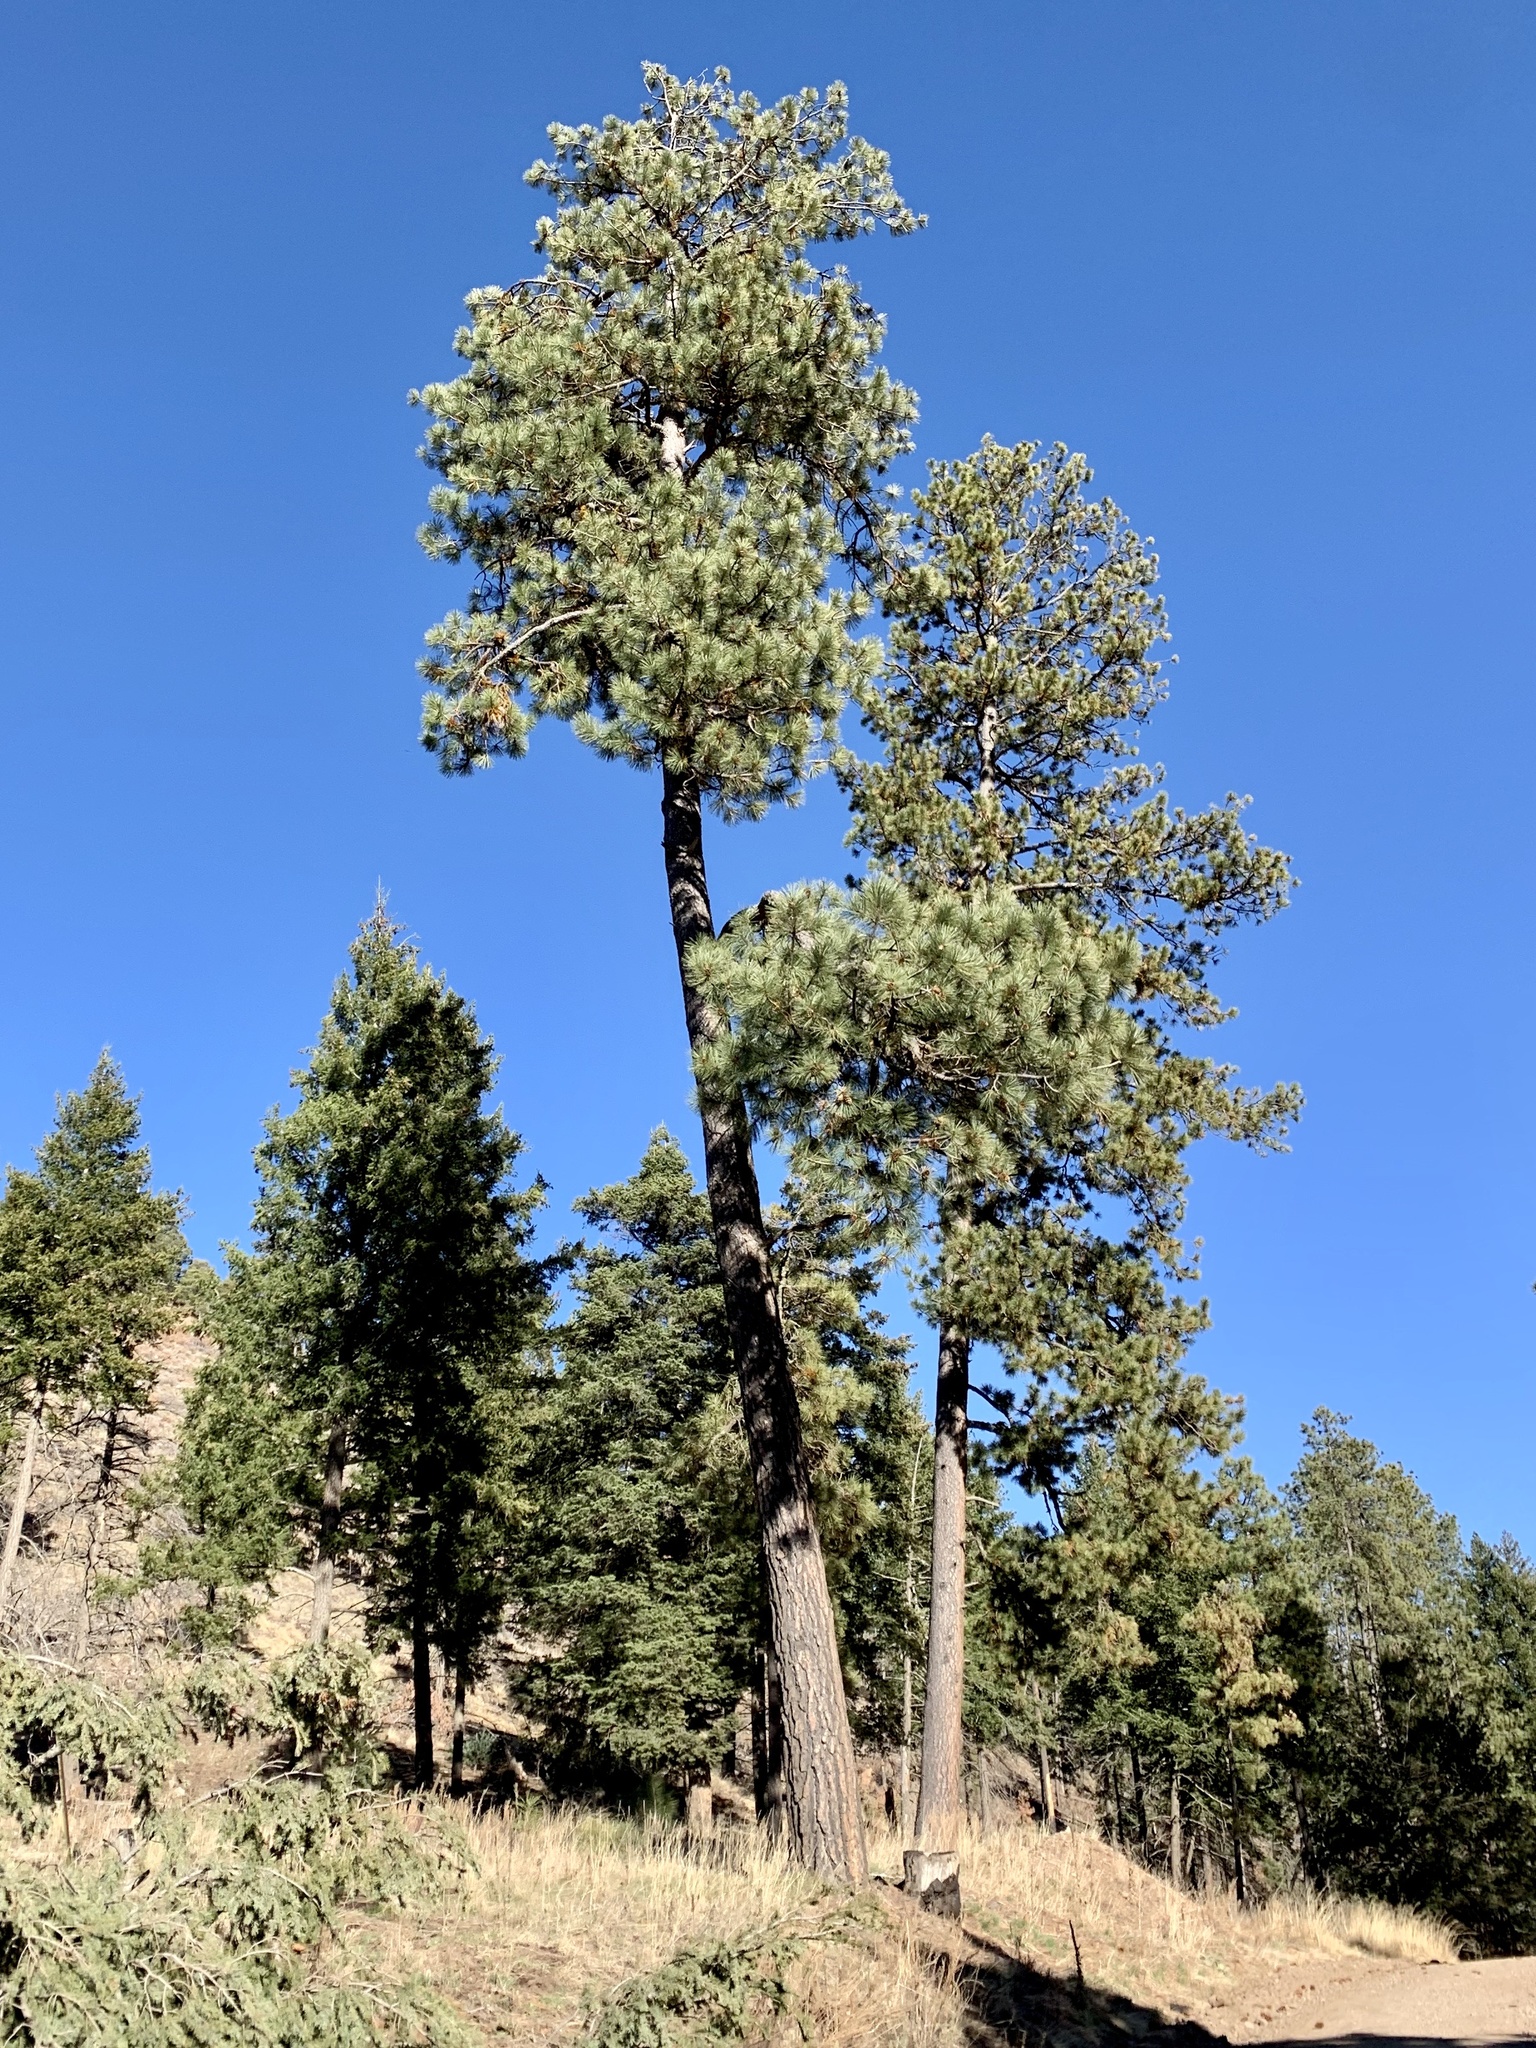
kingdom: Plantae
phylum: Tracheophyta
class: Pinopsida
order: Pinales
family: Pinaceae
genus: Pinus
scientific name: Pinus ponderosa
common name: Western yellow-pine
